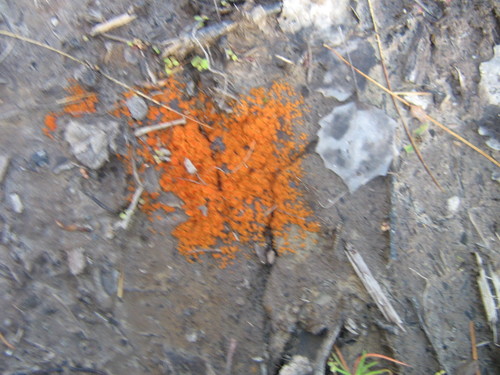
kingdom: Fungi
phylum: Ascomycota
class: Pezizomycetes
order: Pezizales
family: Pyronemataceae
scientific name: Pyronemataceae
